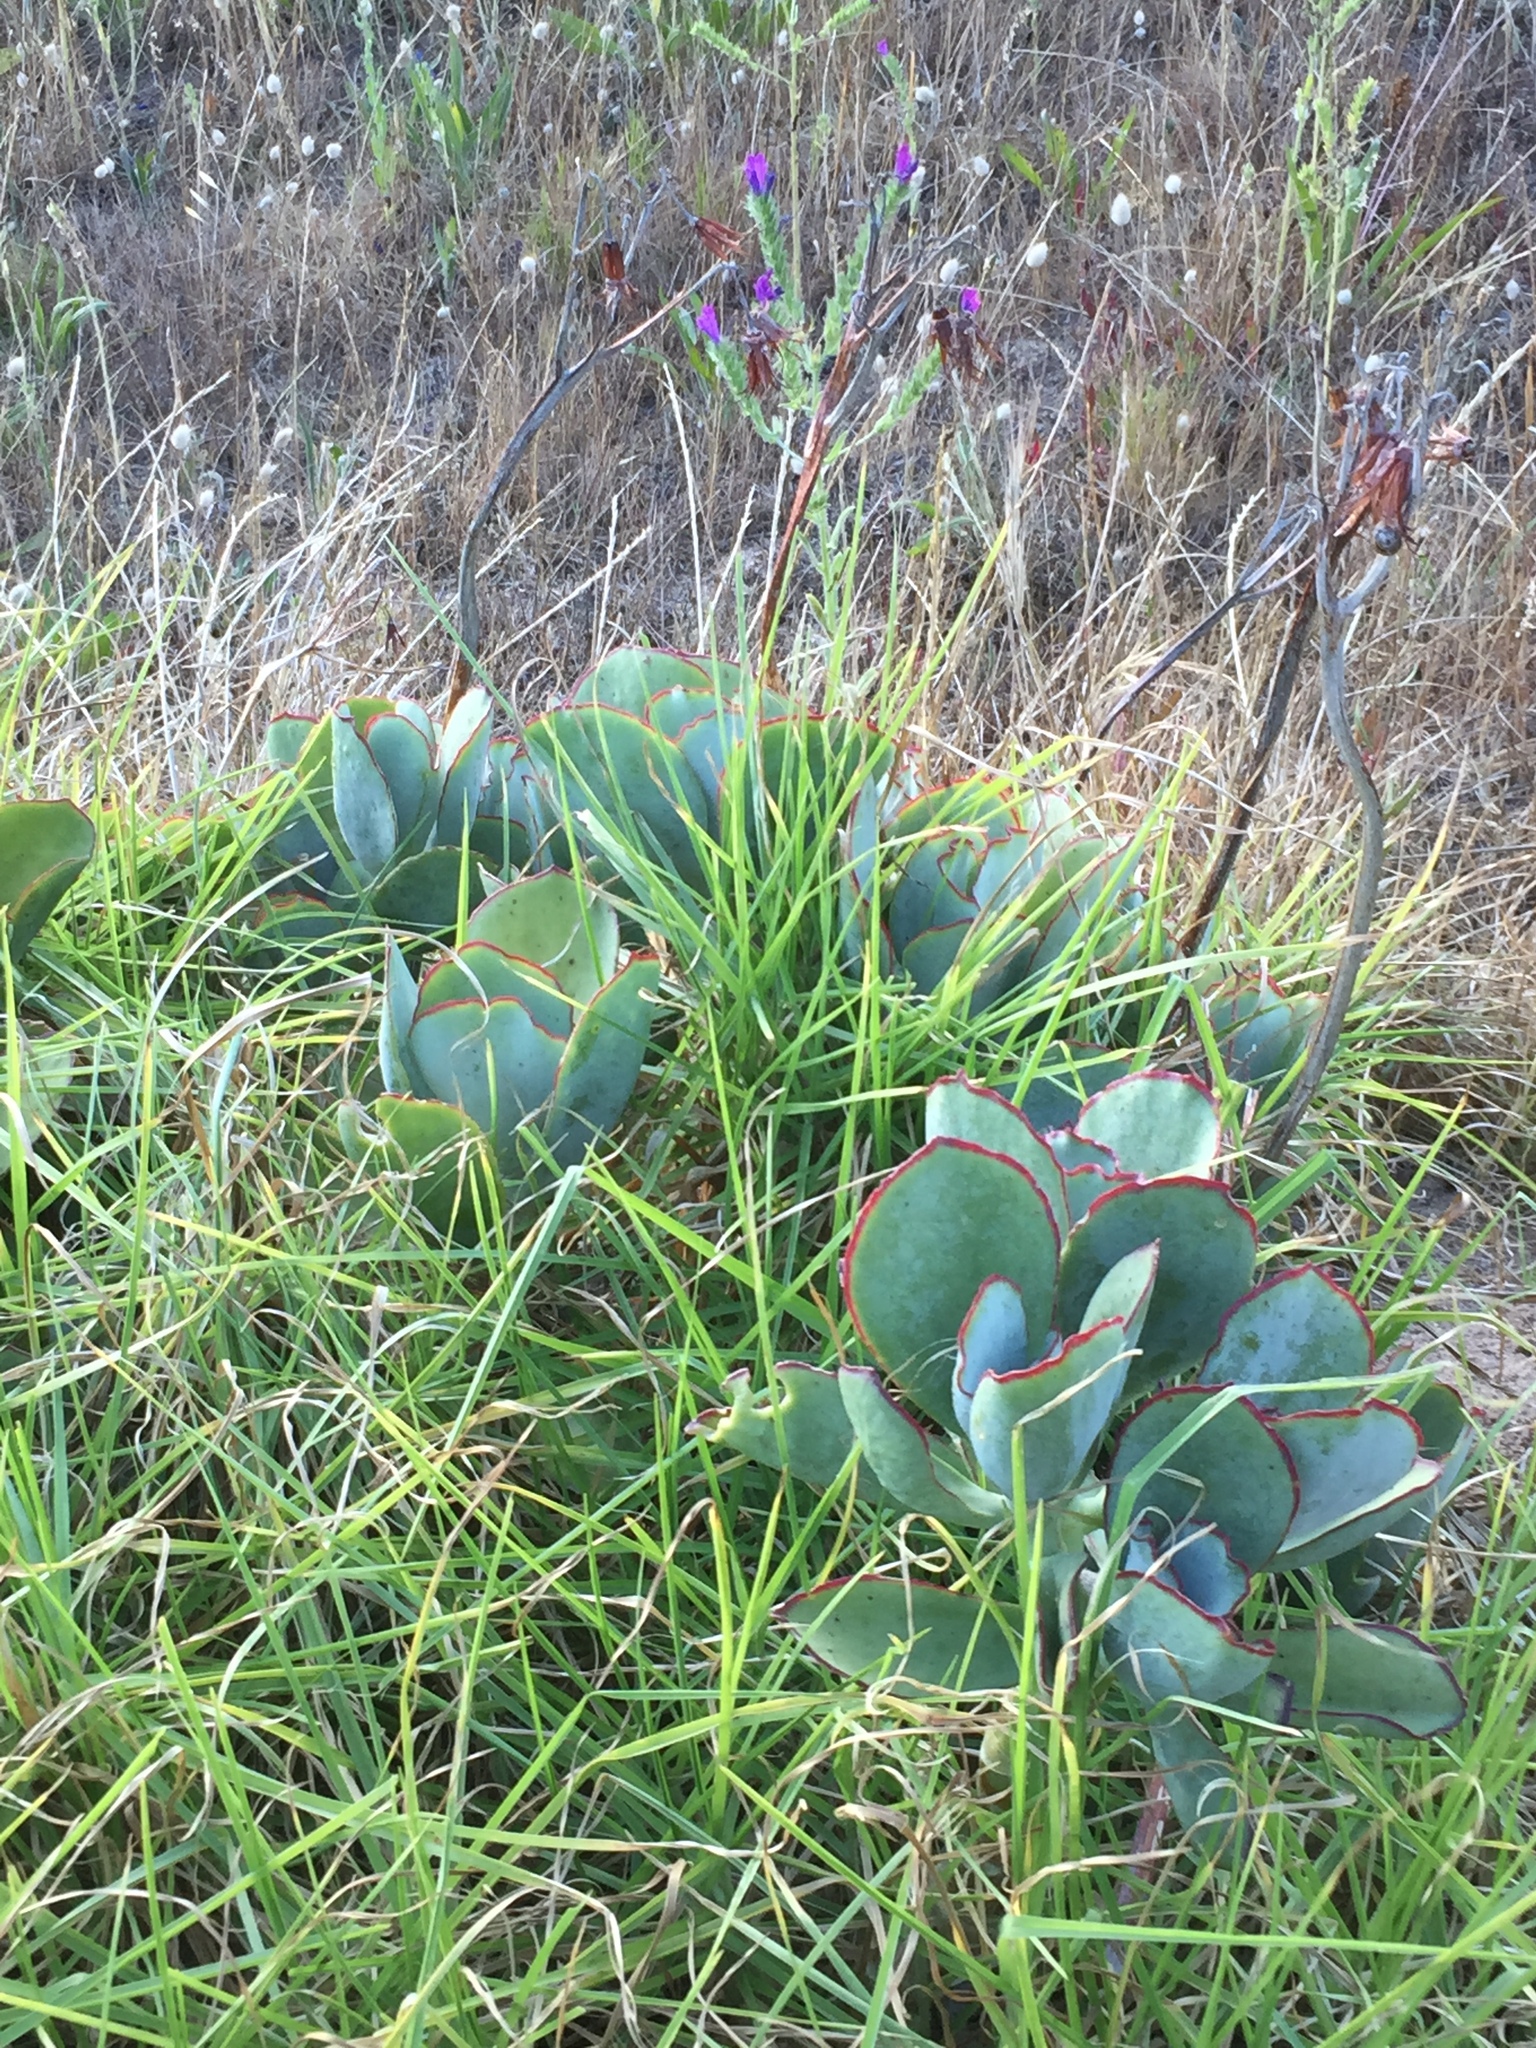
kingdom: Plantae
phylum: Tracheophyta
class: Magnoliopsida
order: Saxifragales
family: Crassulaceae
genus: Cotyledon
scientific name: Cotyledon orbiculata
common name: Pig's ear
